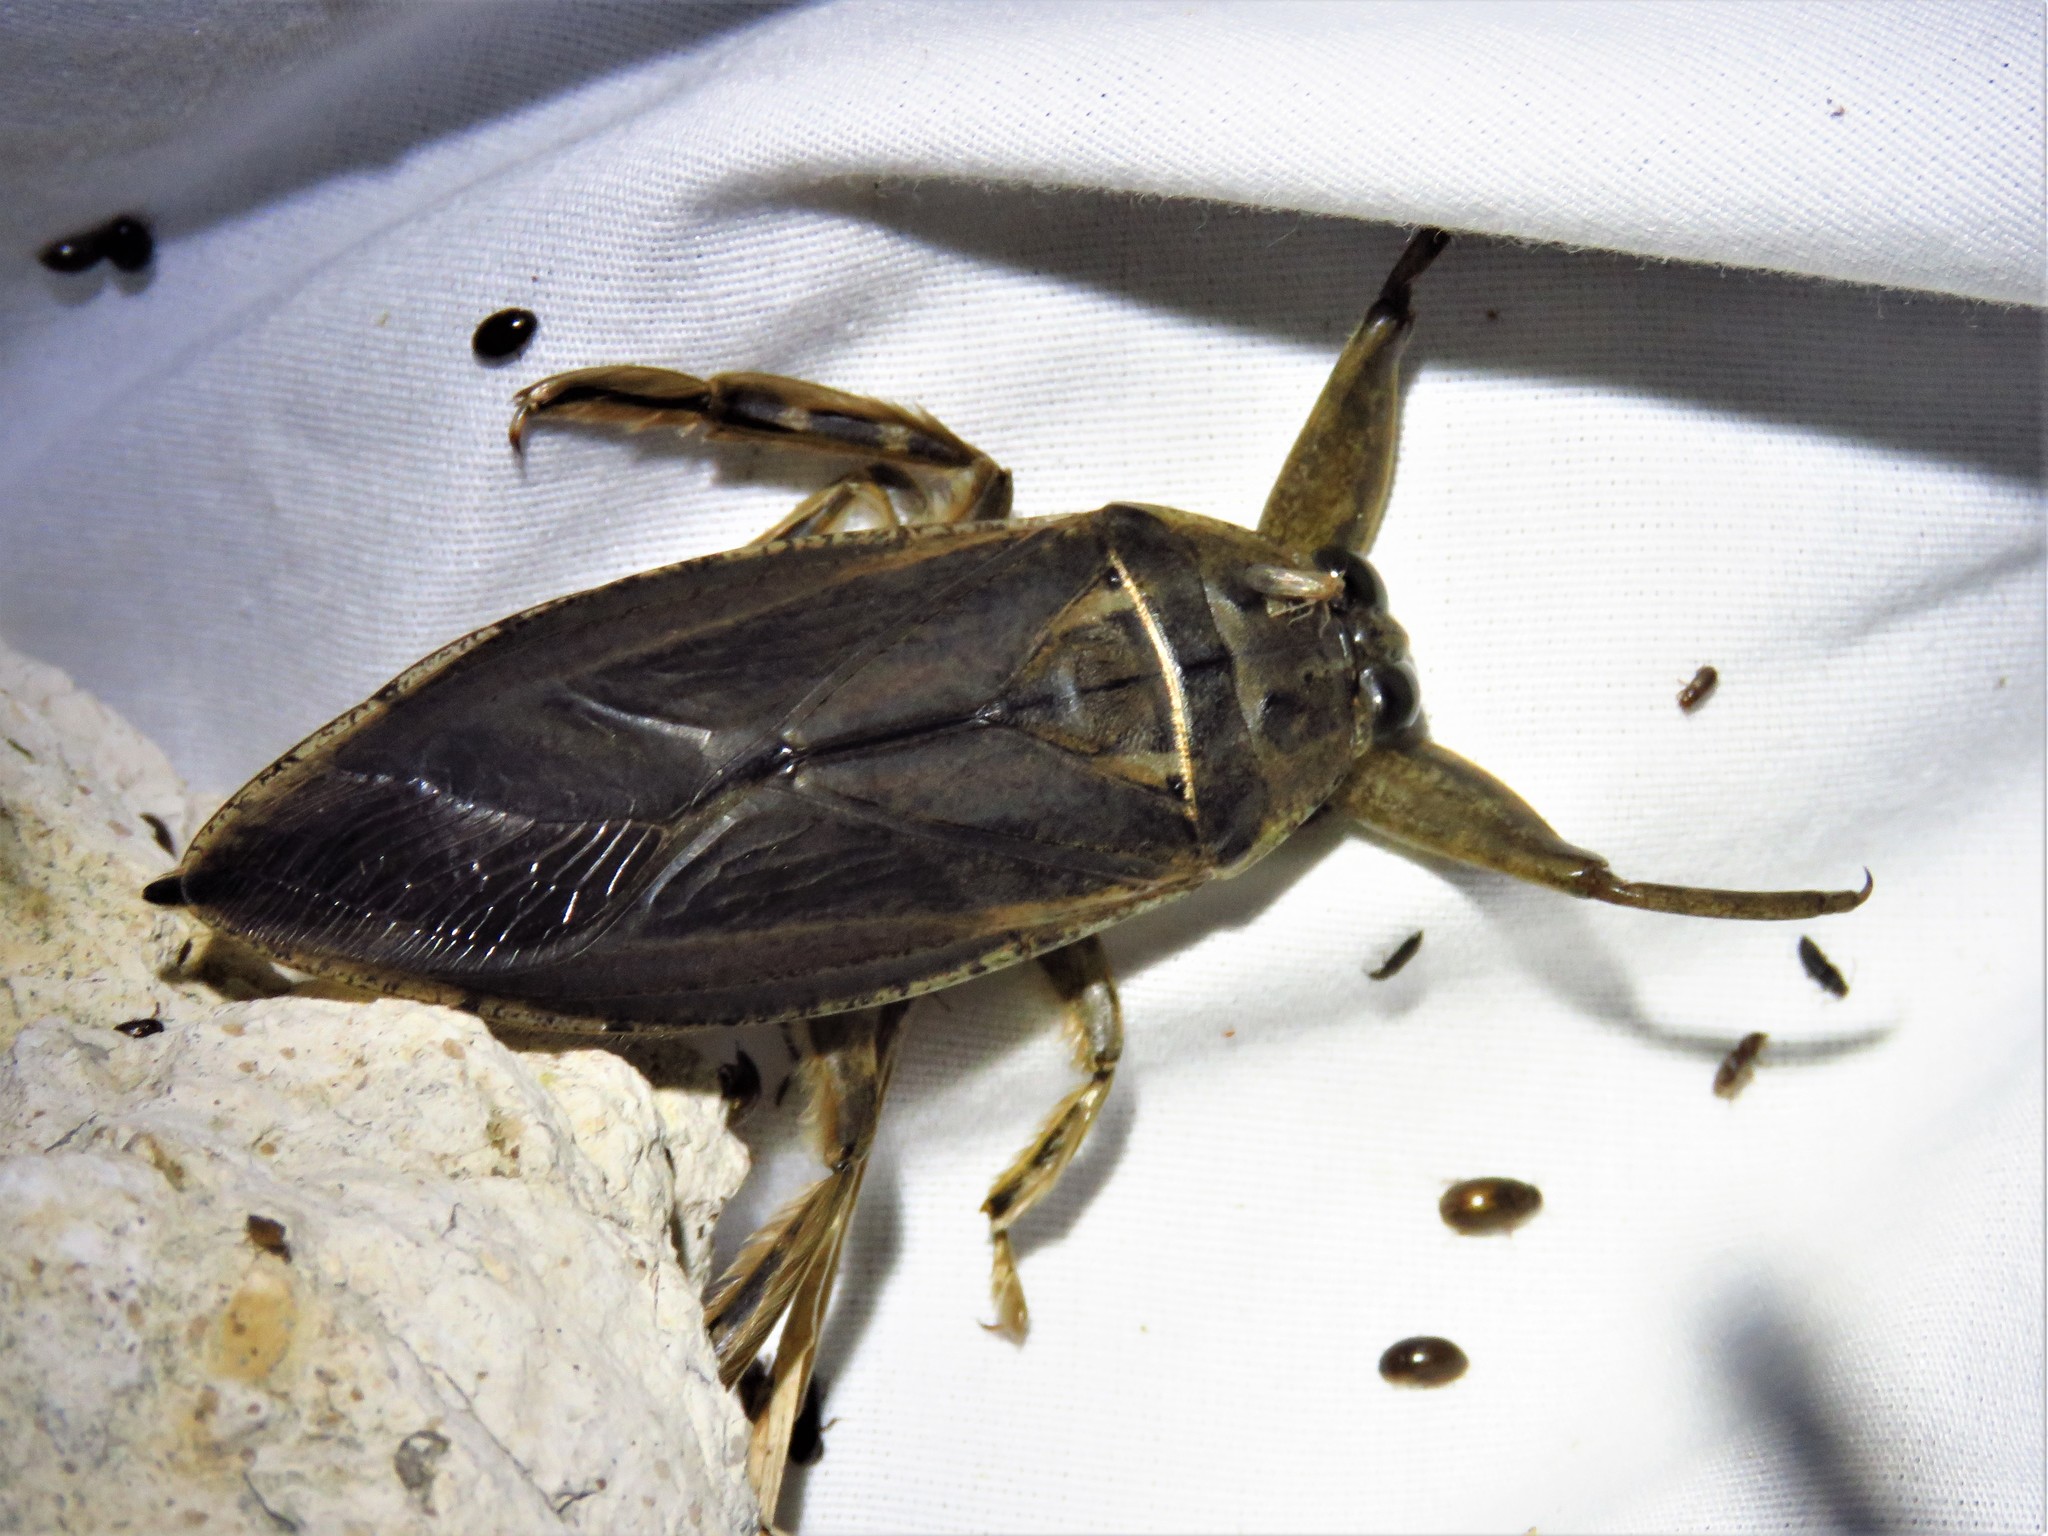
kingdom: Animalia
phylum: Arthropoda
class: Insecta
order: Hemiptera
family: Belostomatidae
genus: Lethocerus
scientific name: Lethocerus uhleri
